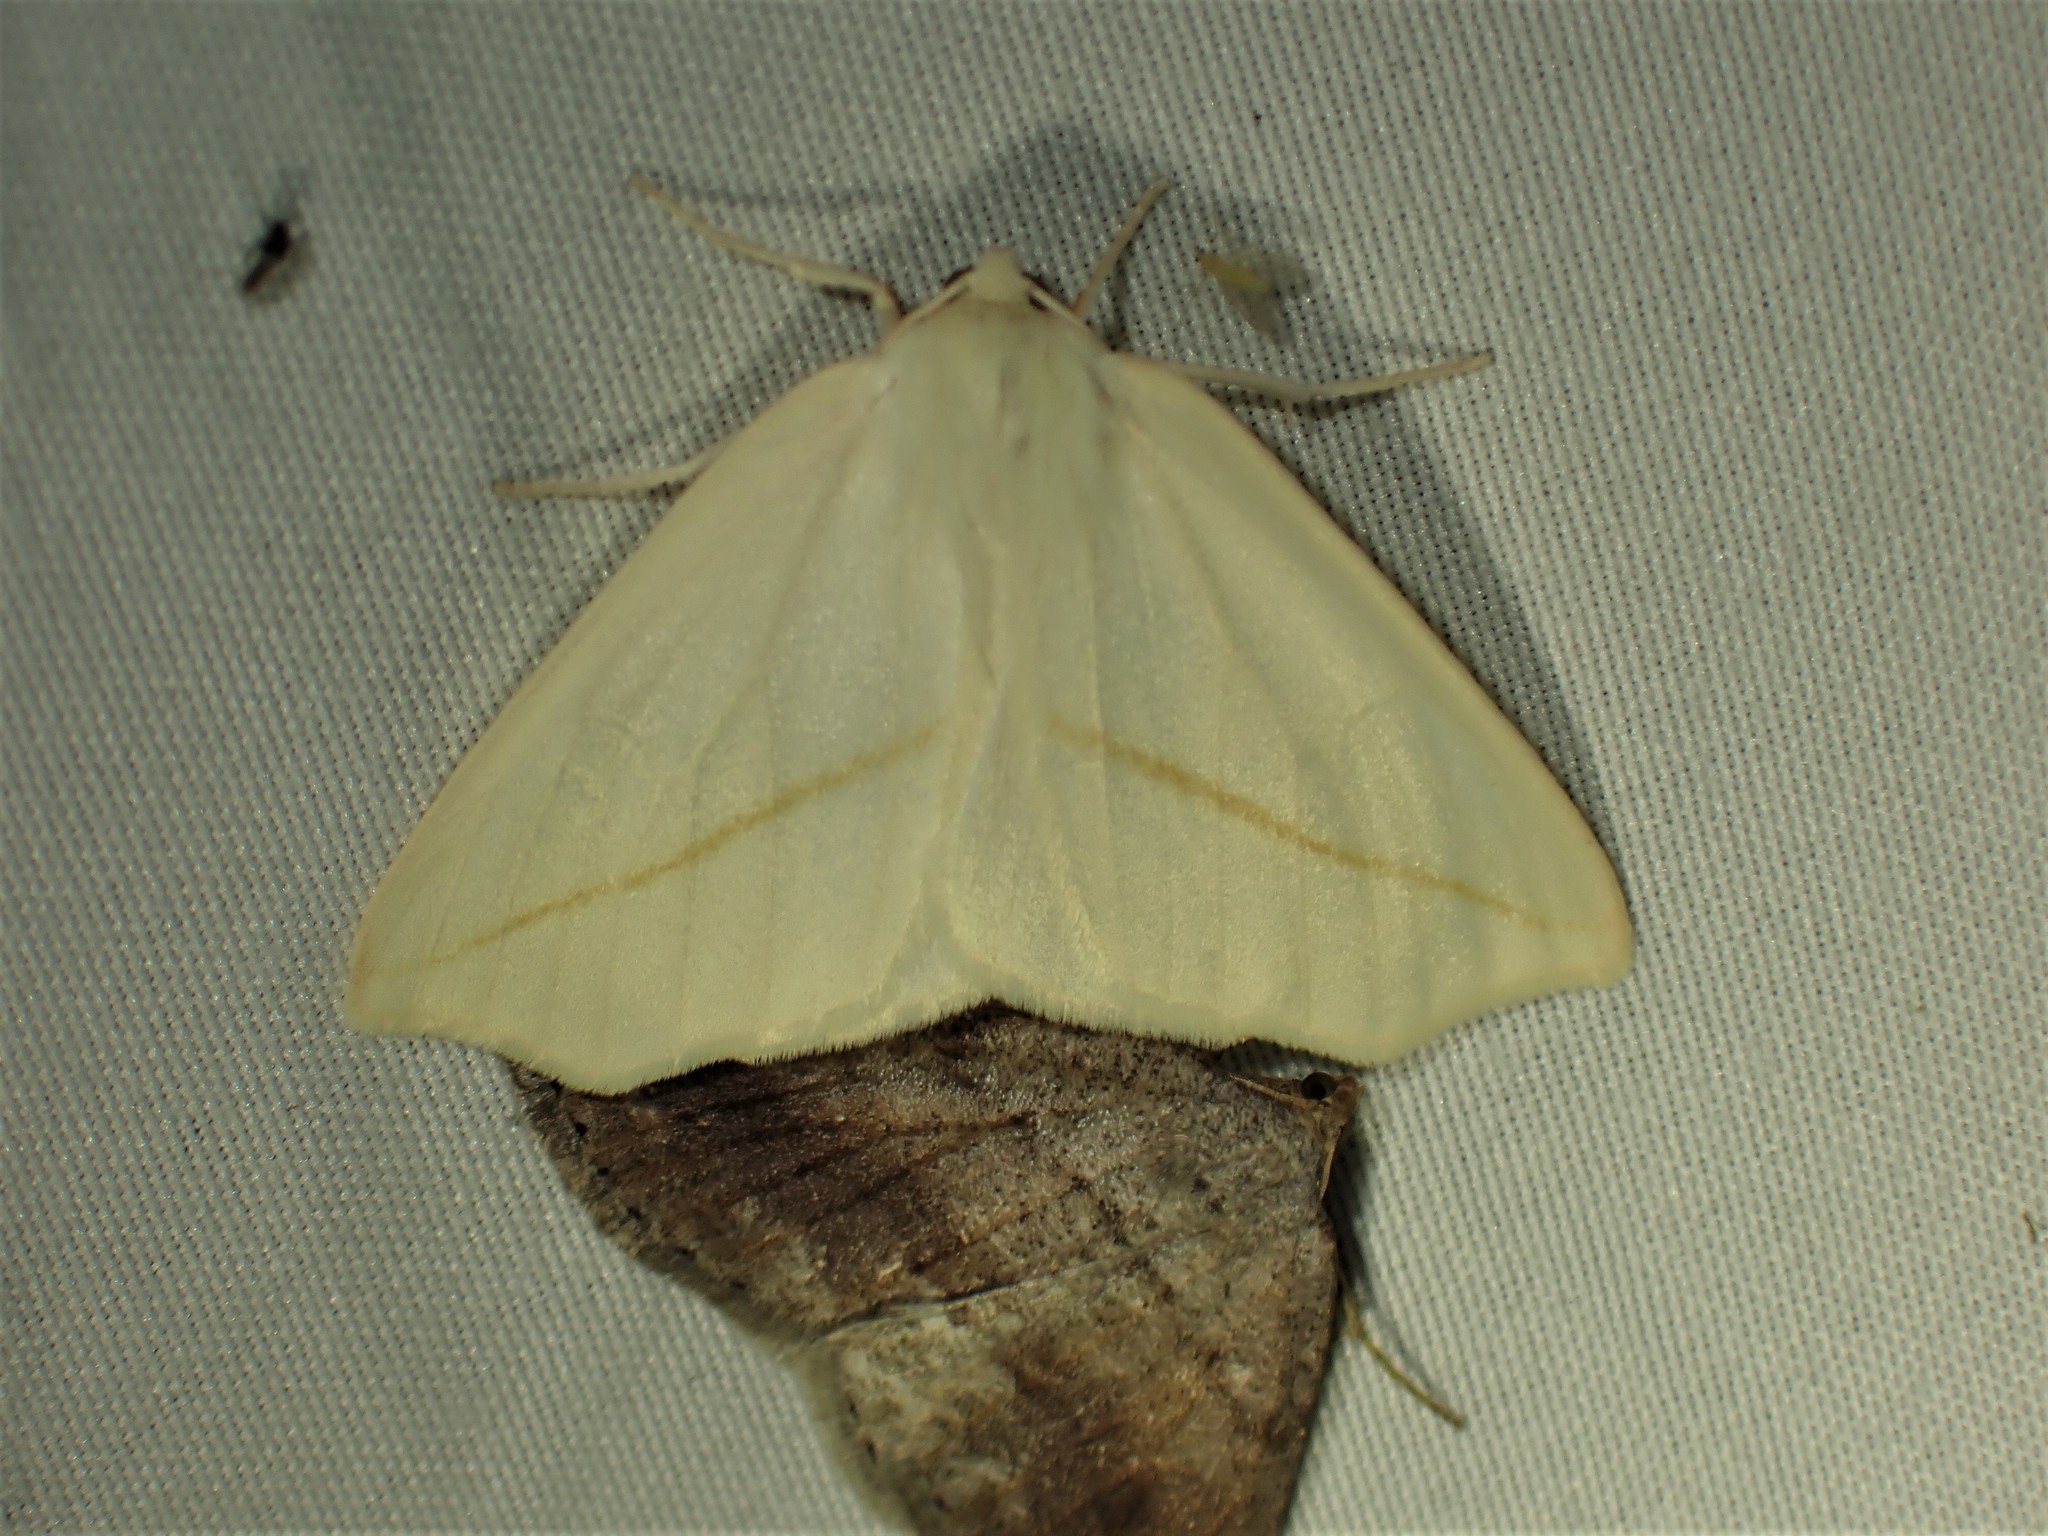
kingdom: Animalia
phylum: Arthropoda
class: Insecta
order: Lepidoptera
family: Geometridae
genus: Tetracis
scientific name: Tetracis cachexiata
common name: White slant-line
